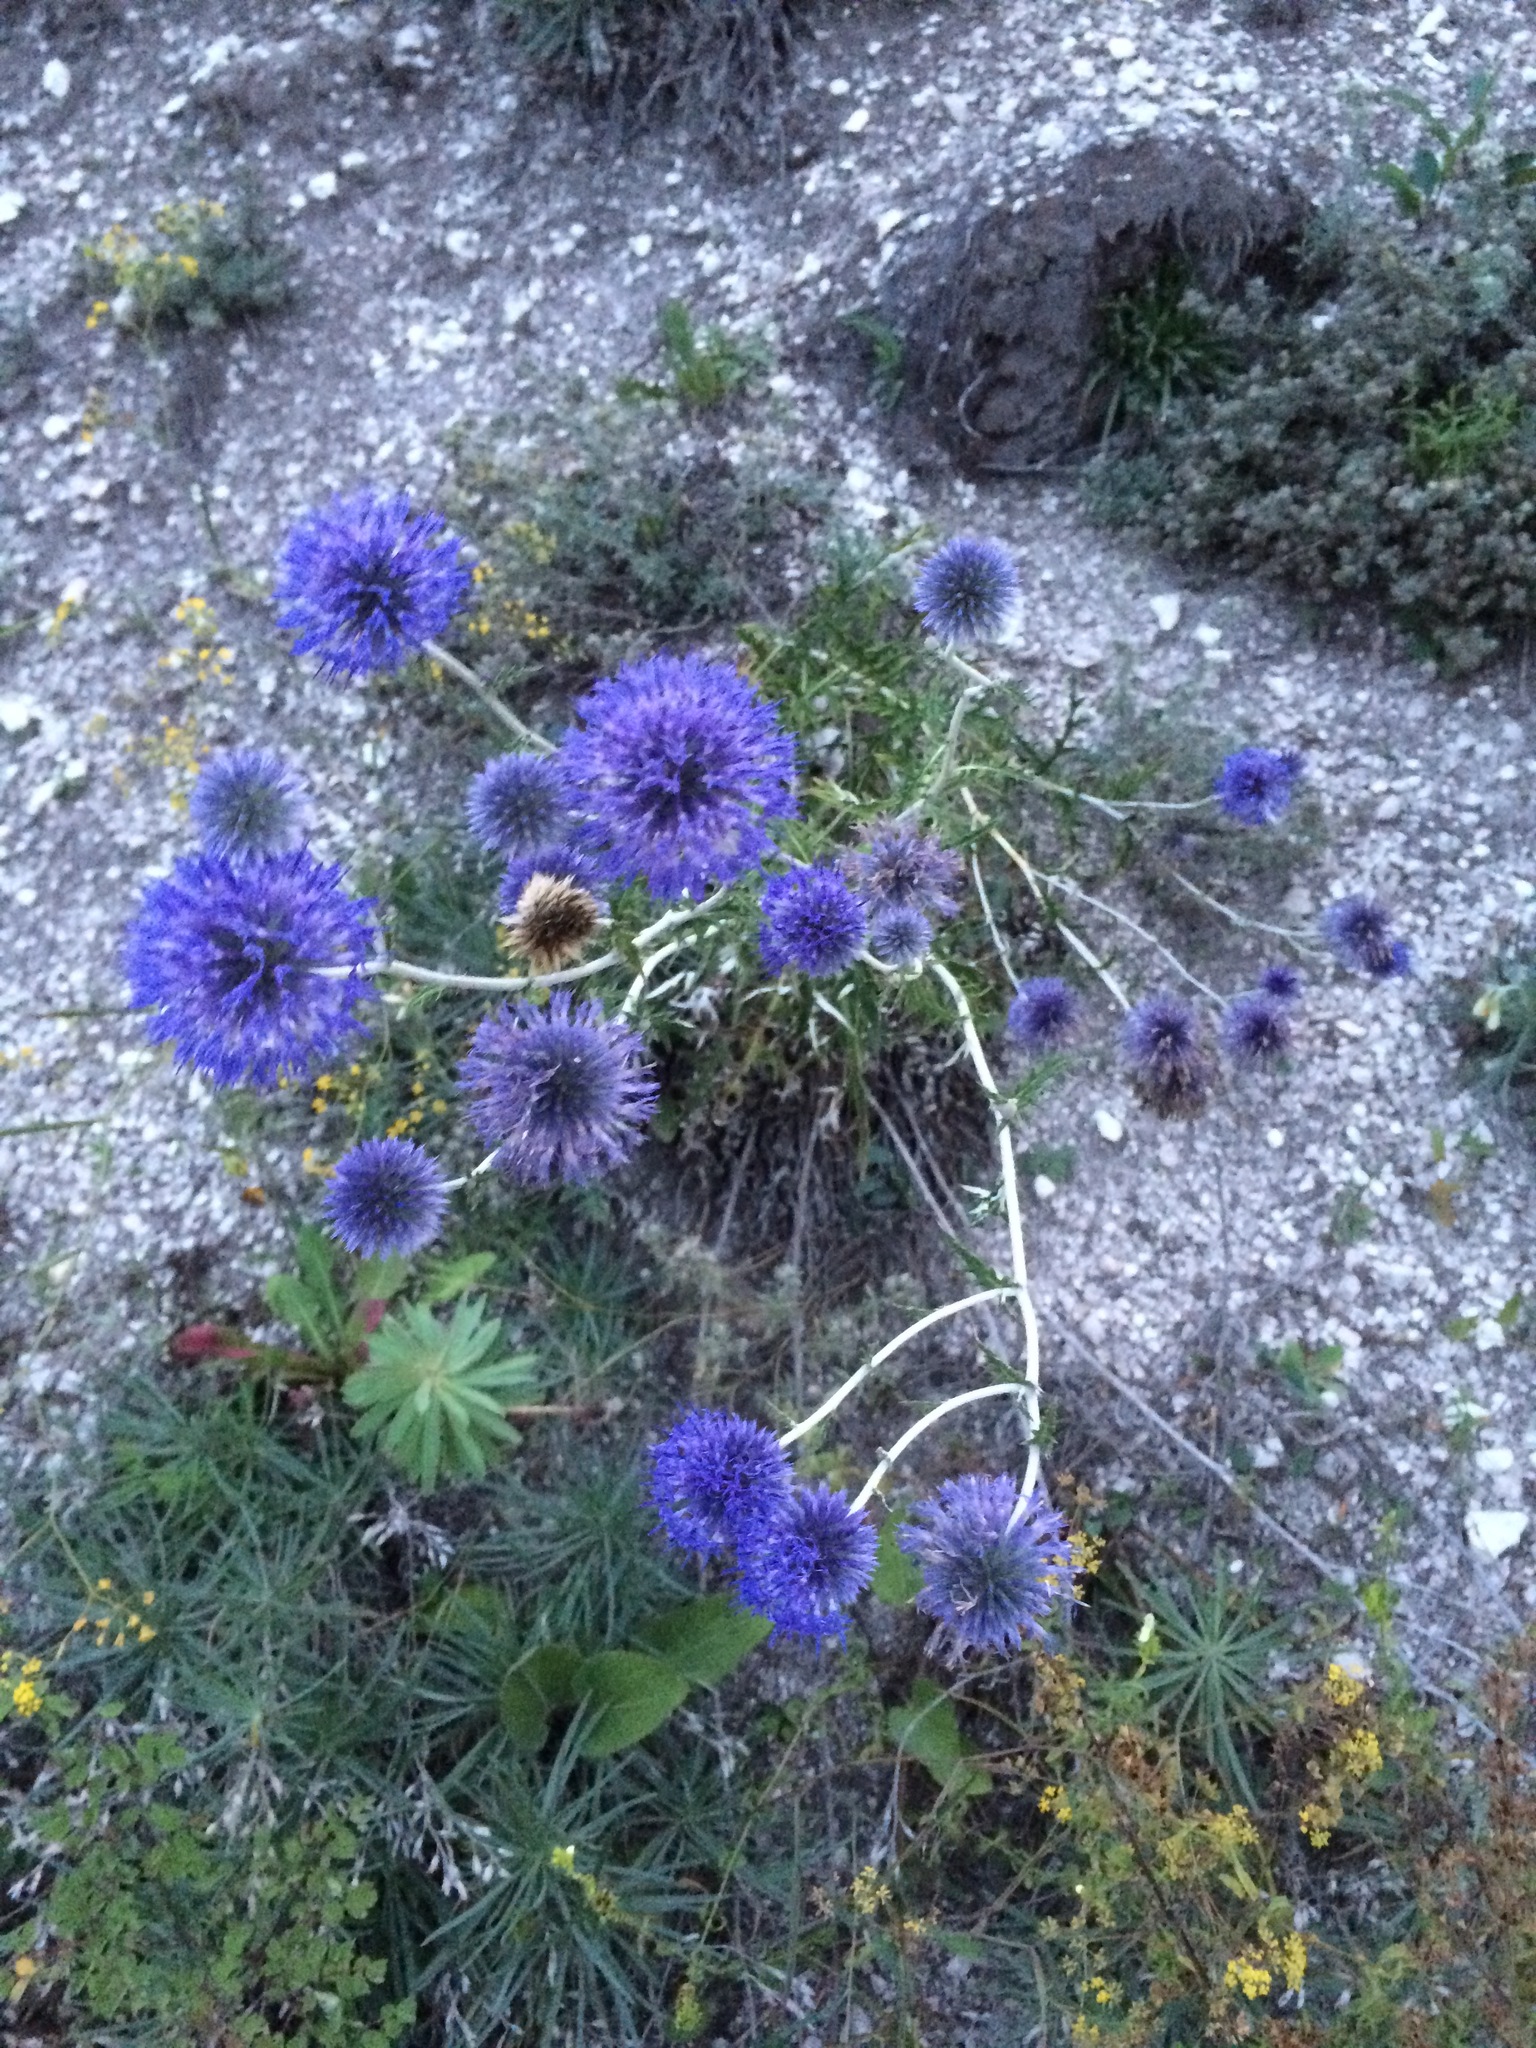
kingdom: Plantae
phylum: Tracheophyta
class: Magnoliopsida
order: Asterales
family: Asteraceae
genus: Echinops
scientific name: Echinops ritro
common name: Globe thistle
